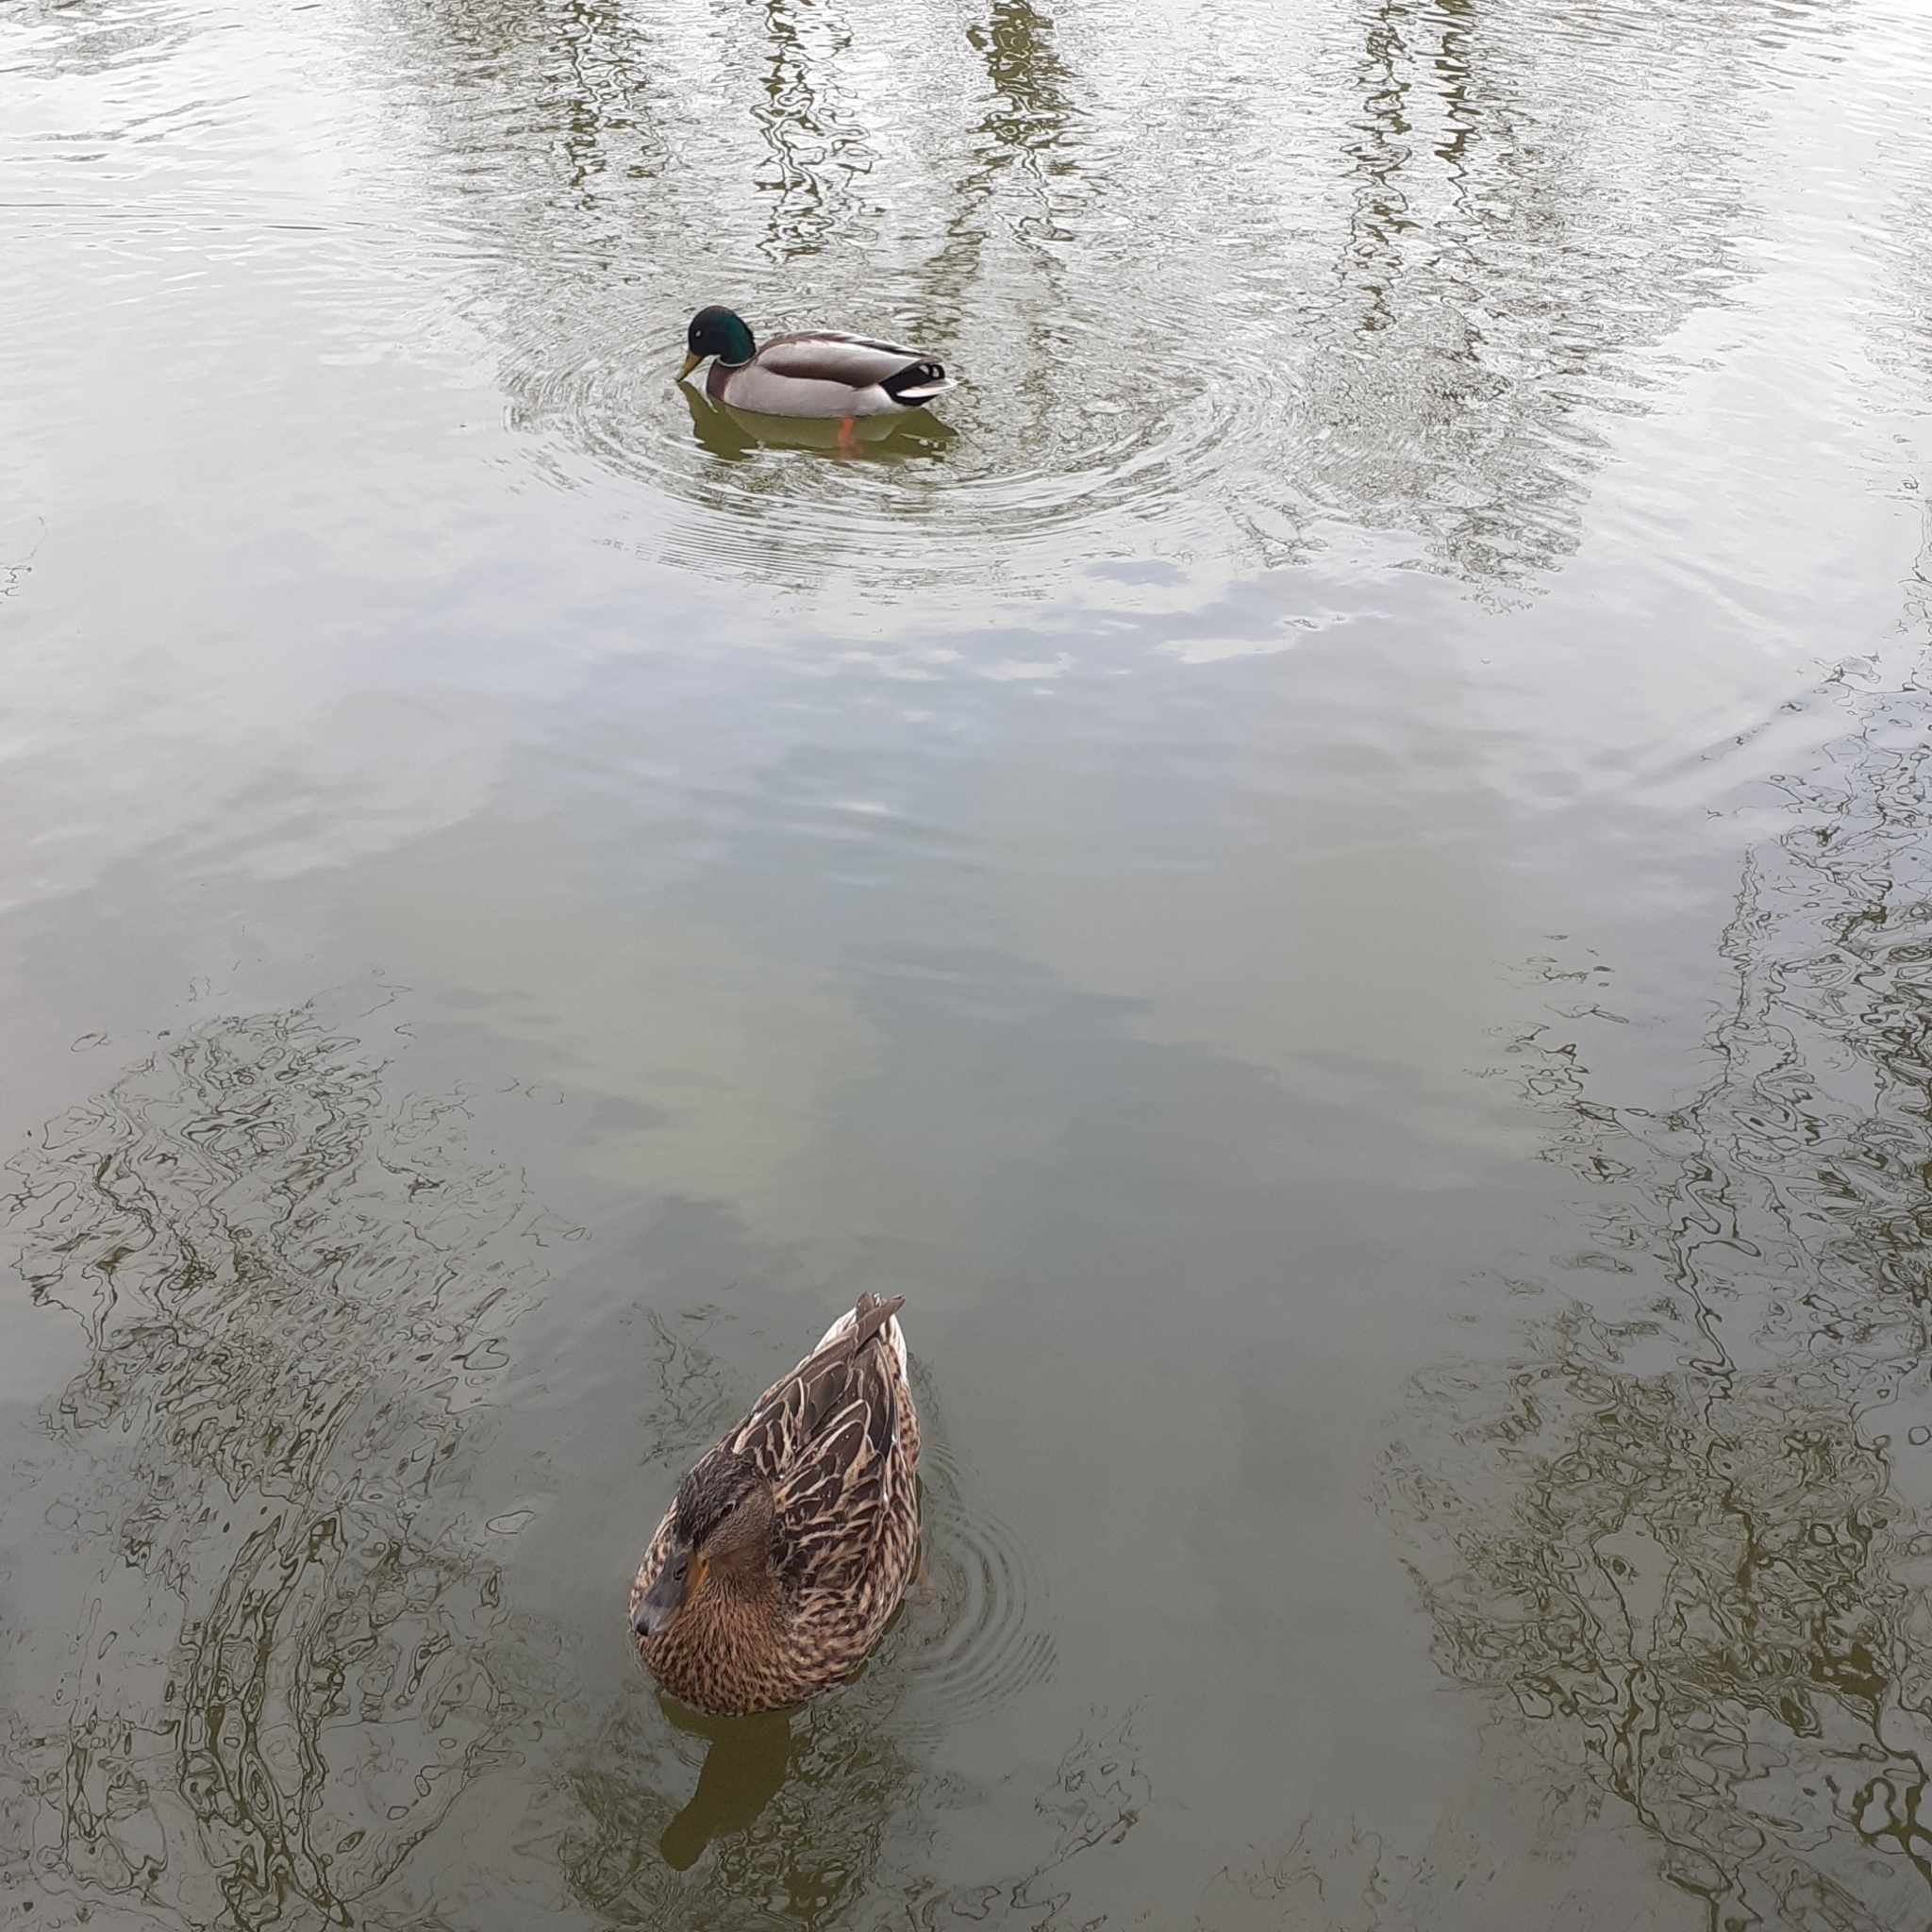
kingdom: Animalia
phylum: Chordata
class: Aves
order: Anseriformes
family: Anatidae
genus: Anas
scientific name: Anas platyrhynchos
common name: Mallard
